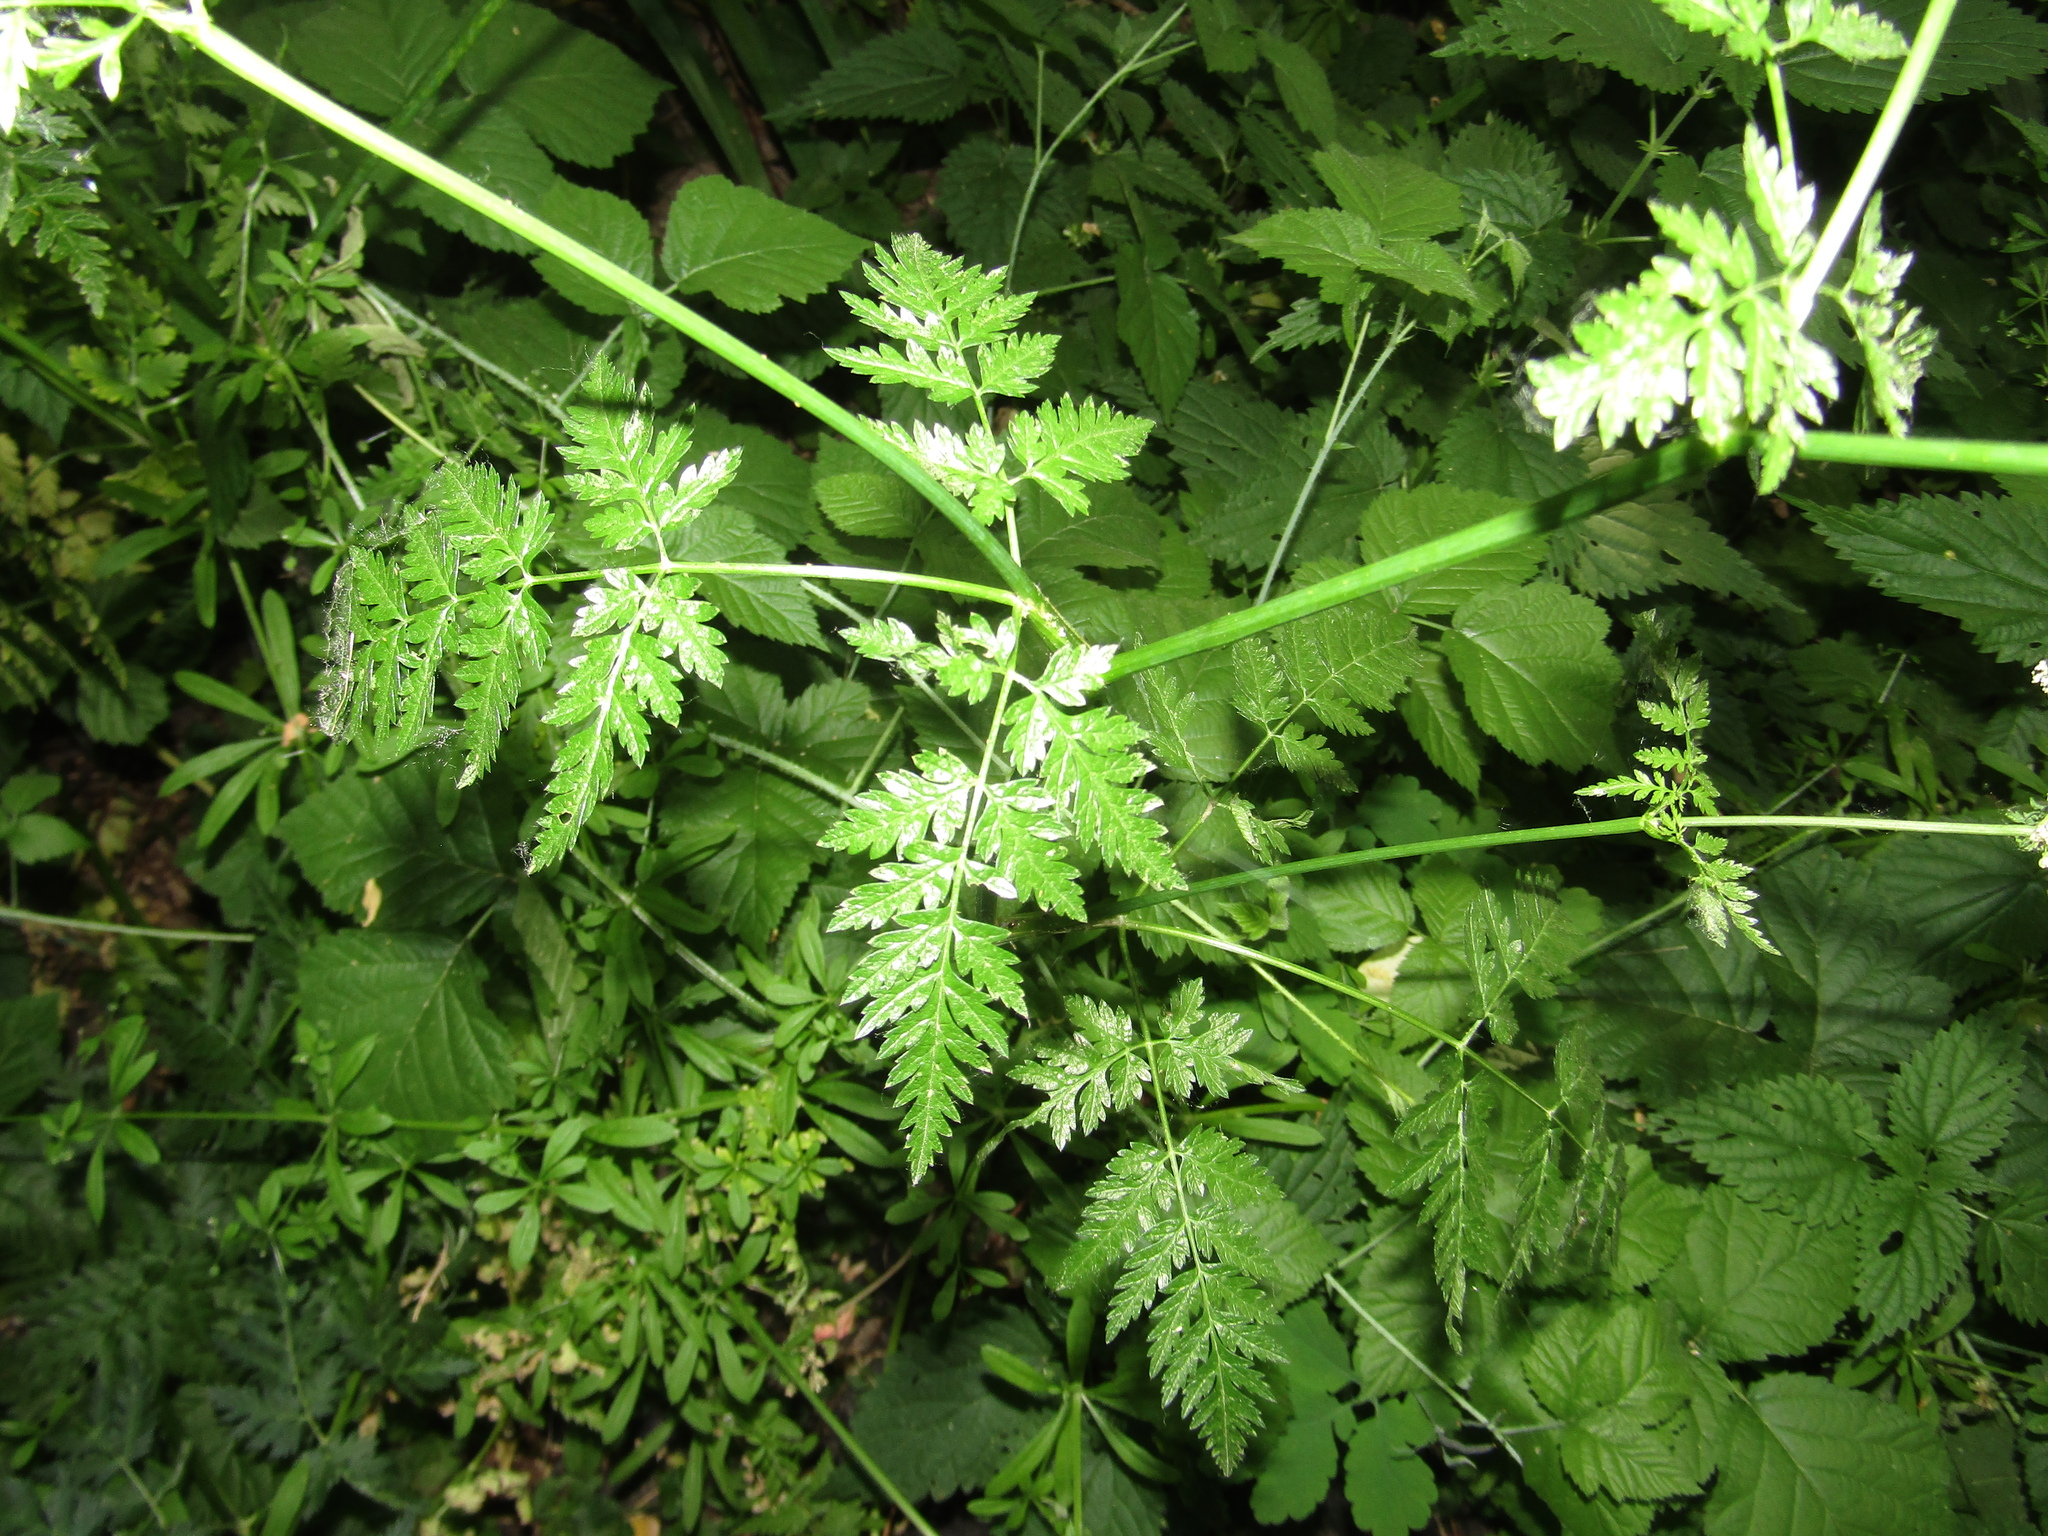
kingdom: Plantae
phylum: Tracheophyta
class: Magnoliopsida
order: Apiales
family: Apiaceae
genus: Anthriscus
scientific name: Anthriscus sylvestris
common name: Cow parsley
